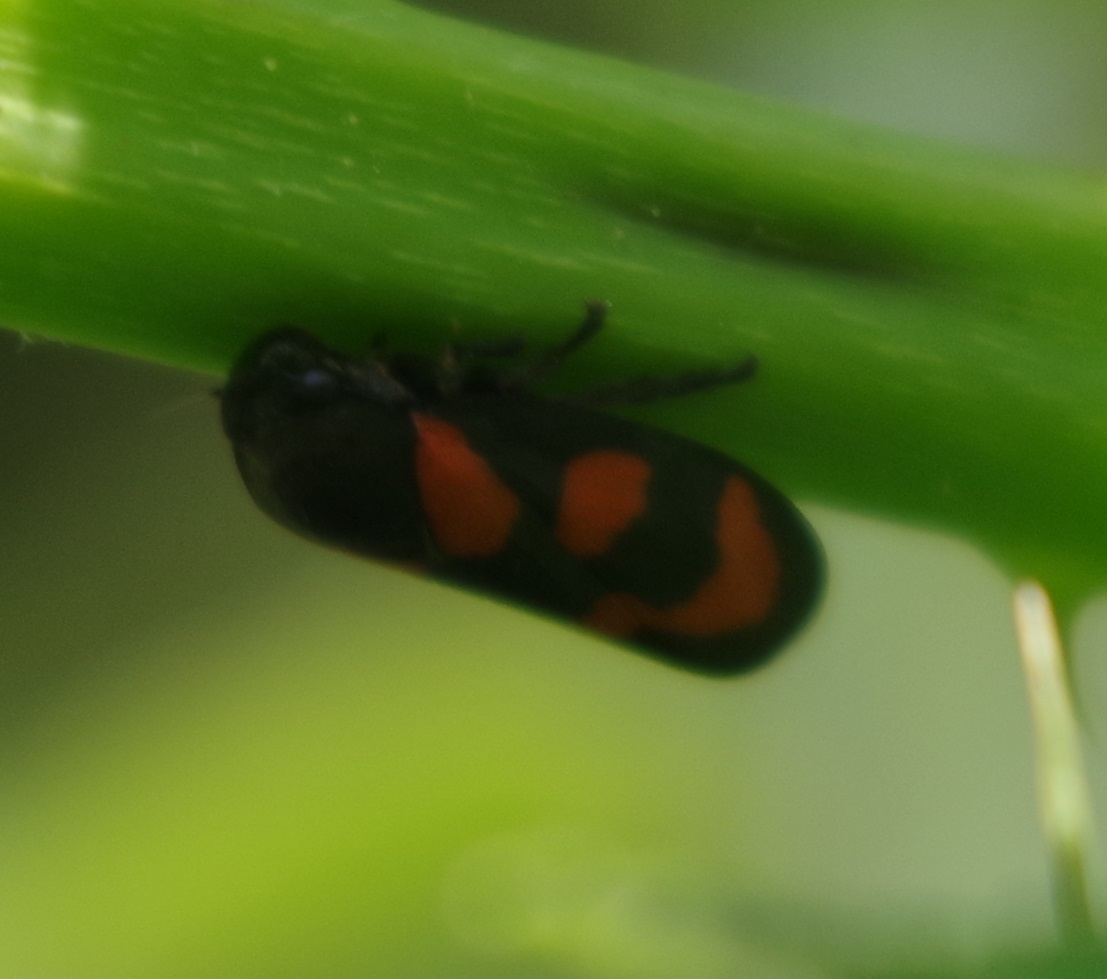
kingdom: Animalia
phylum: Arthropoda
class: Insecta
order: Hemiptera
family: Cercopidae
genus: Cercopis
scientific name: Cercopis vulnerata
